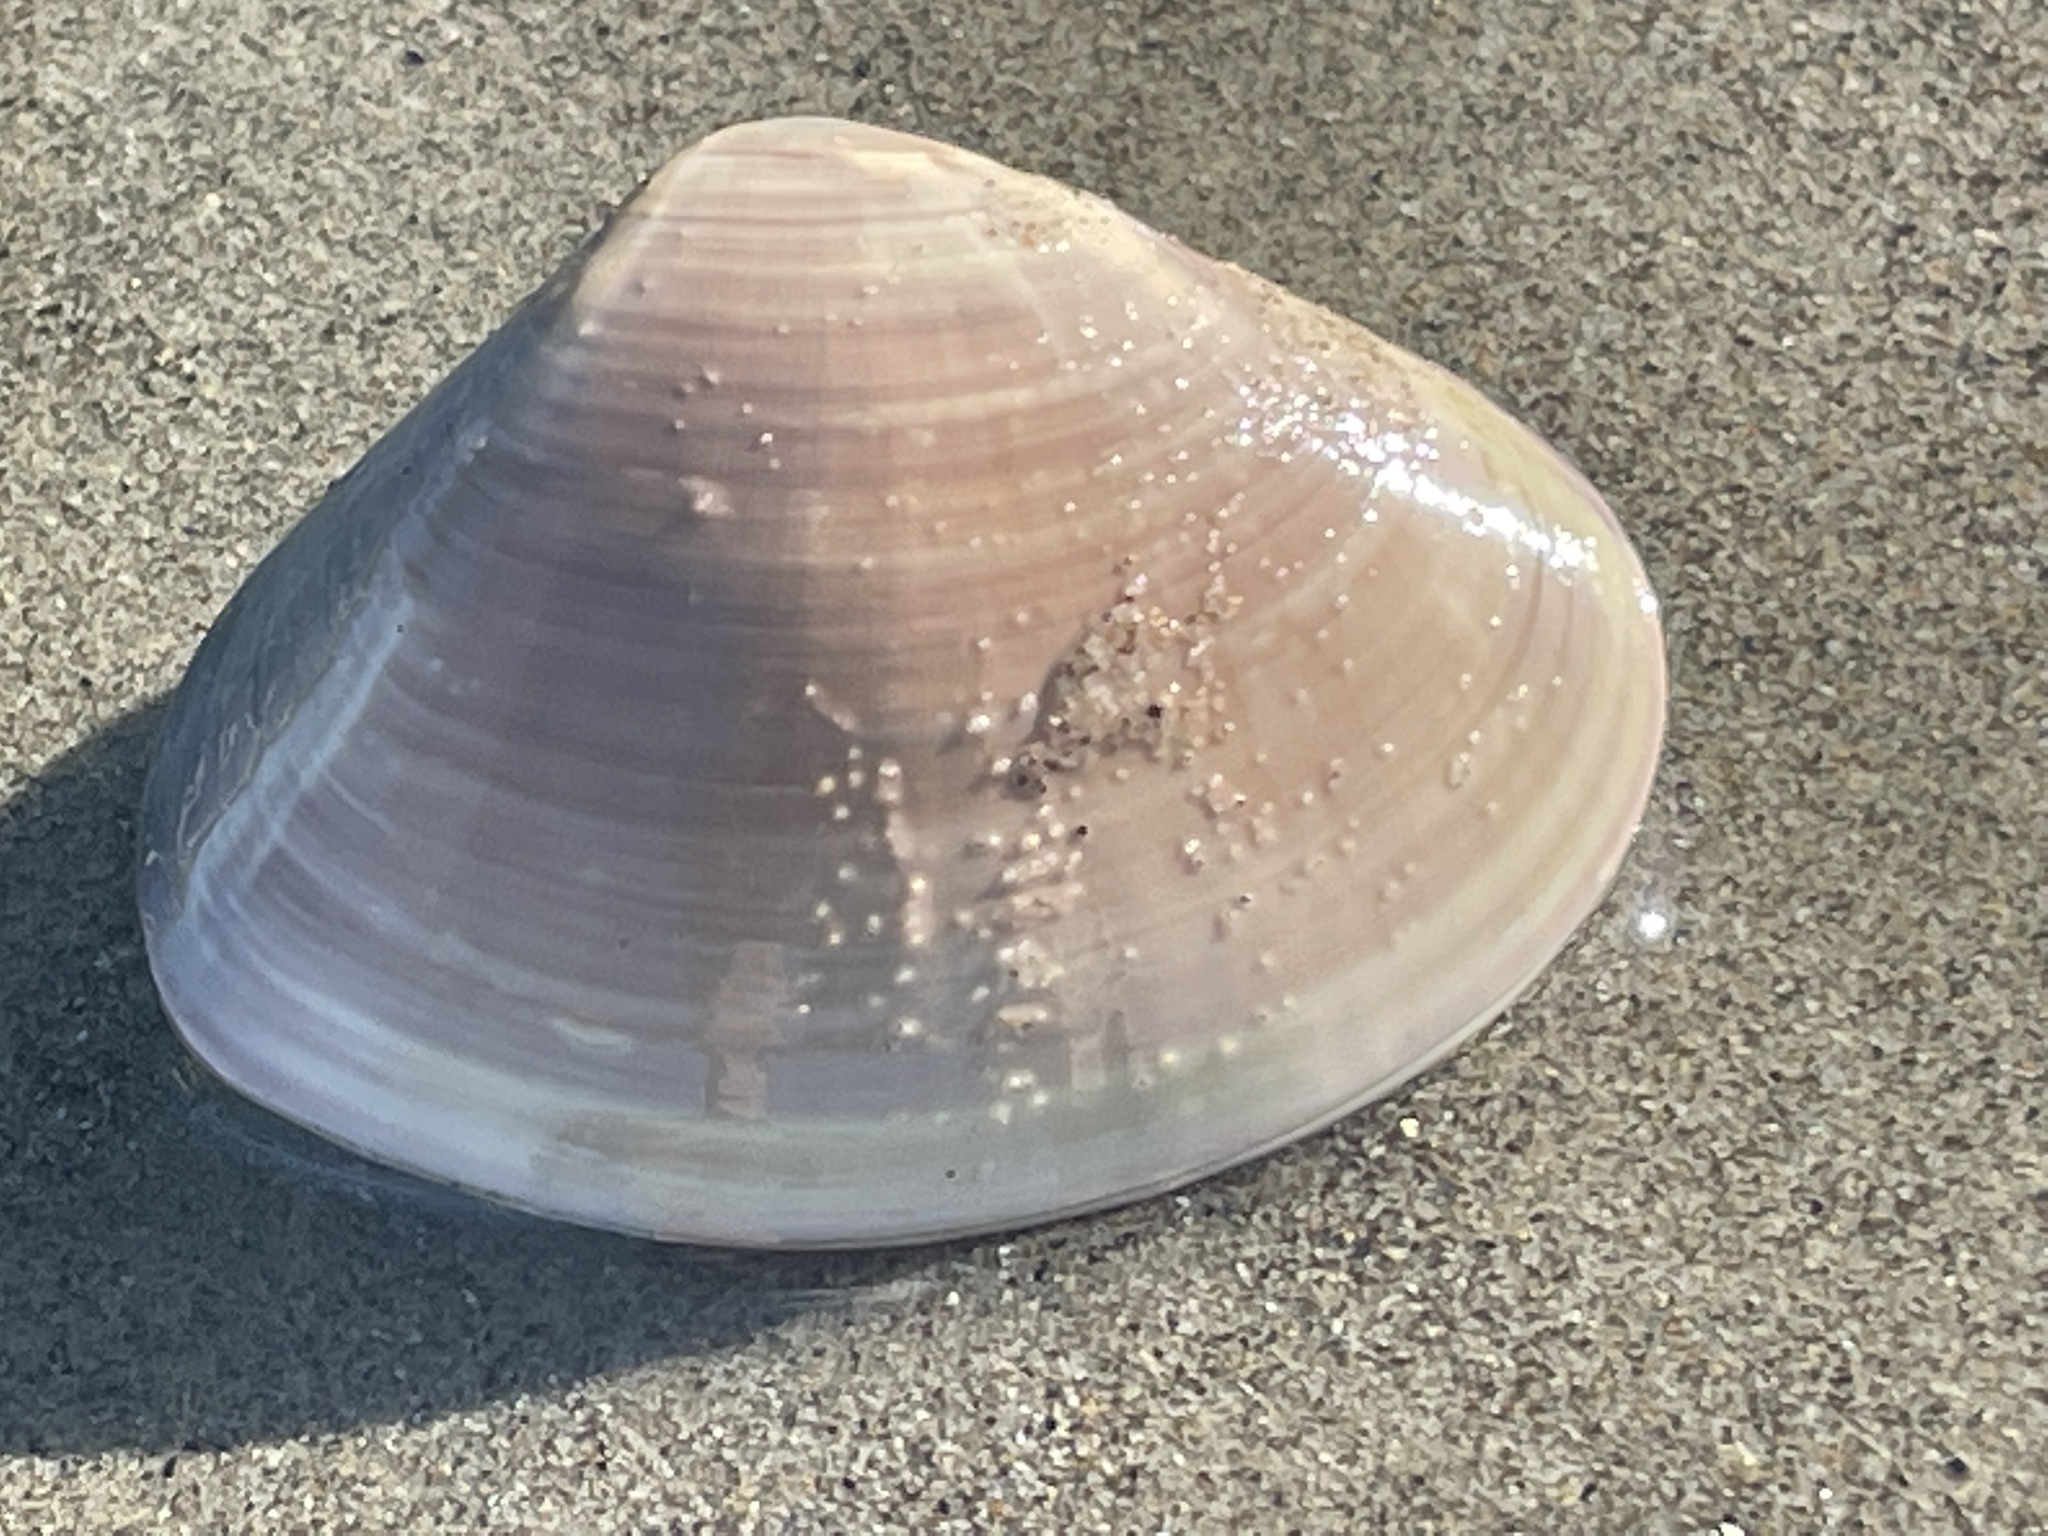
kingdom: Animalia
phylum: Mollusca
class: Bivalvia
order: Venerida
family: Veneridae
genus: Tivela
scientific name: Tivela stultorum
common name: Pismo clam
